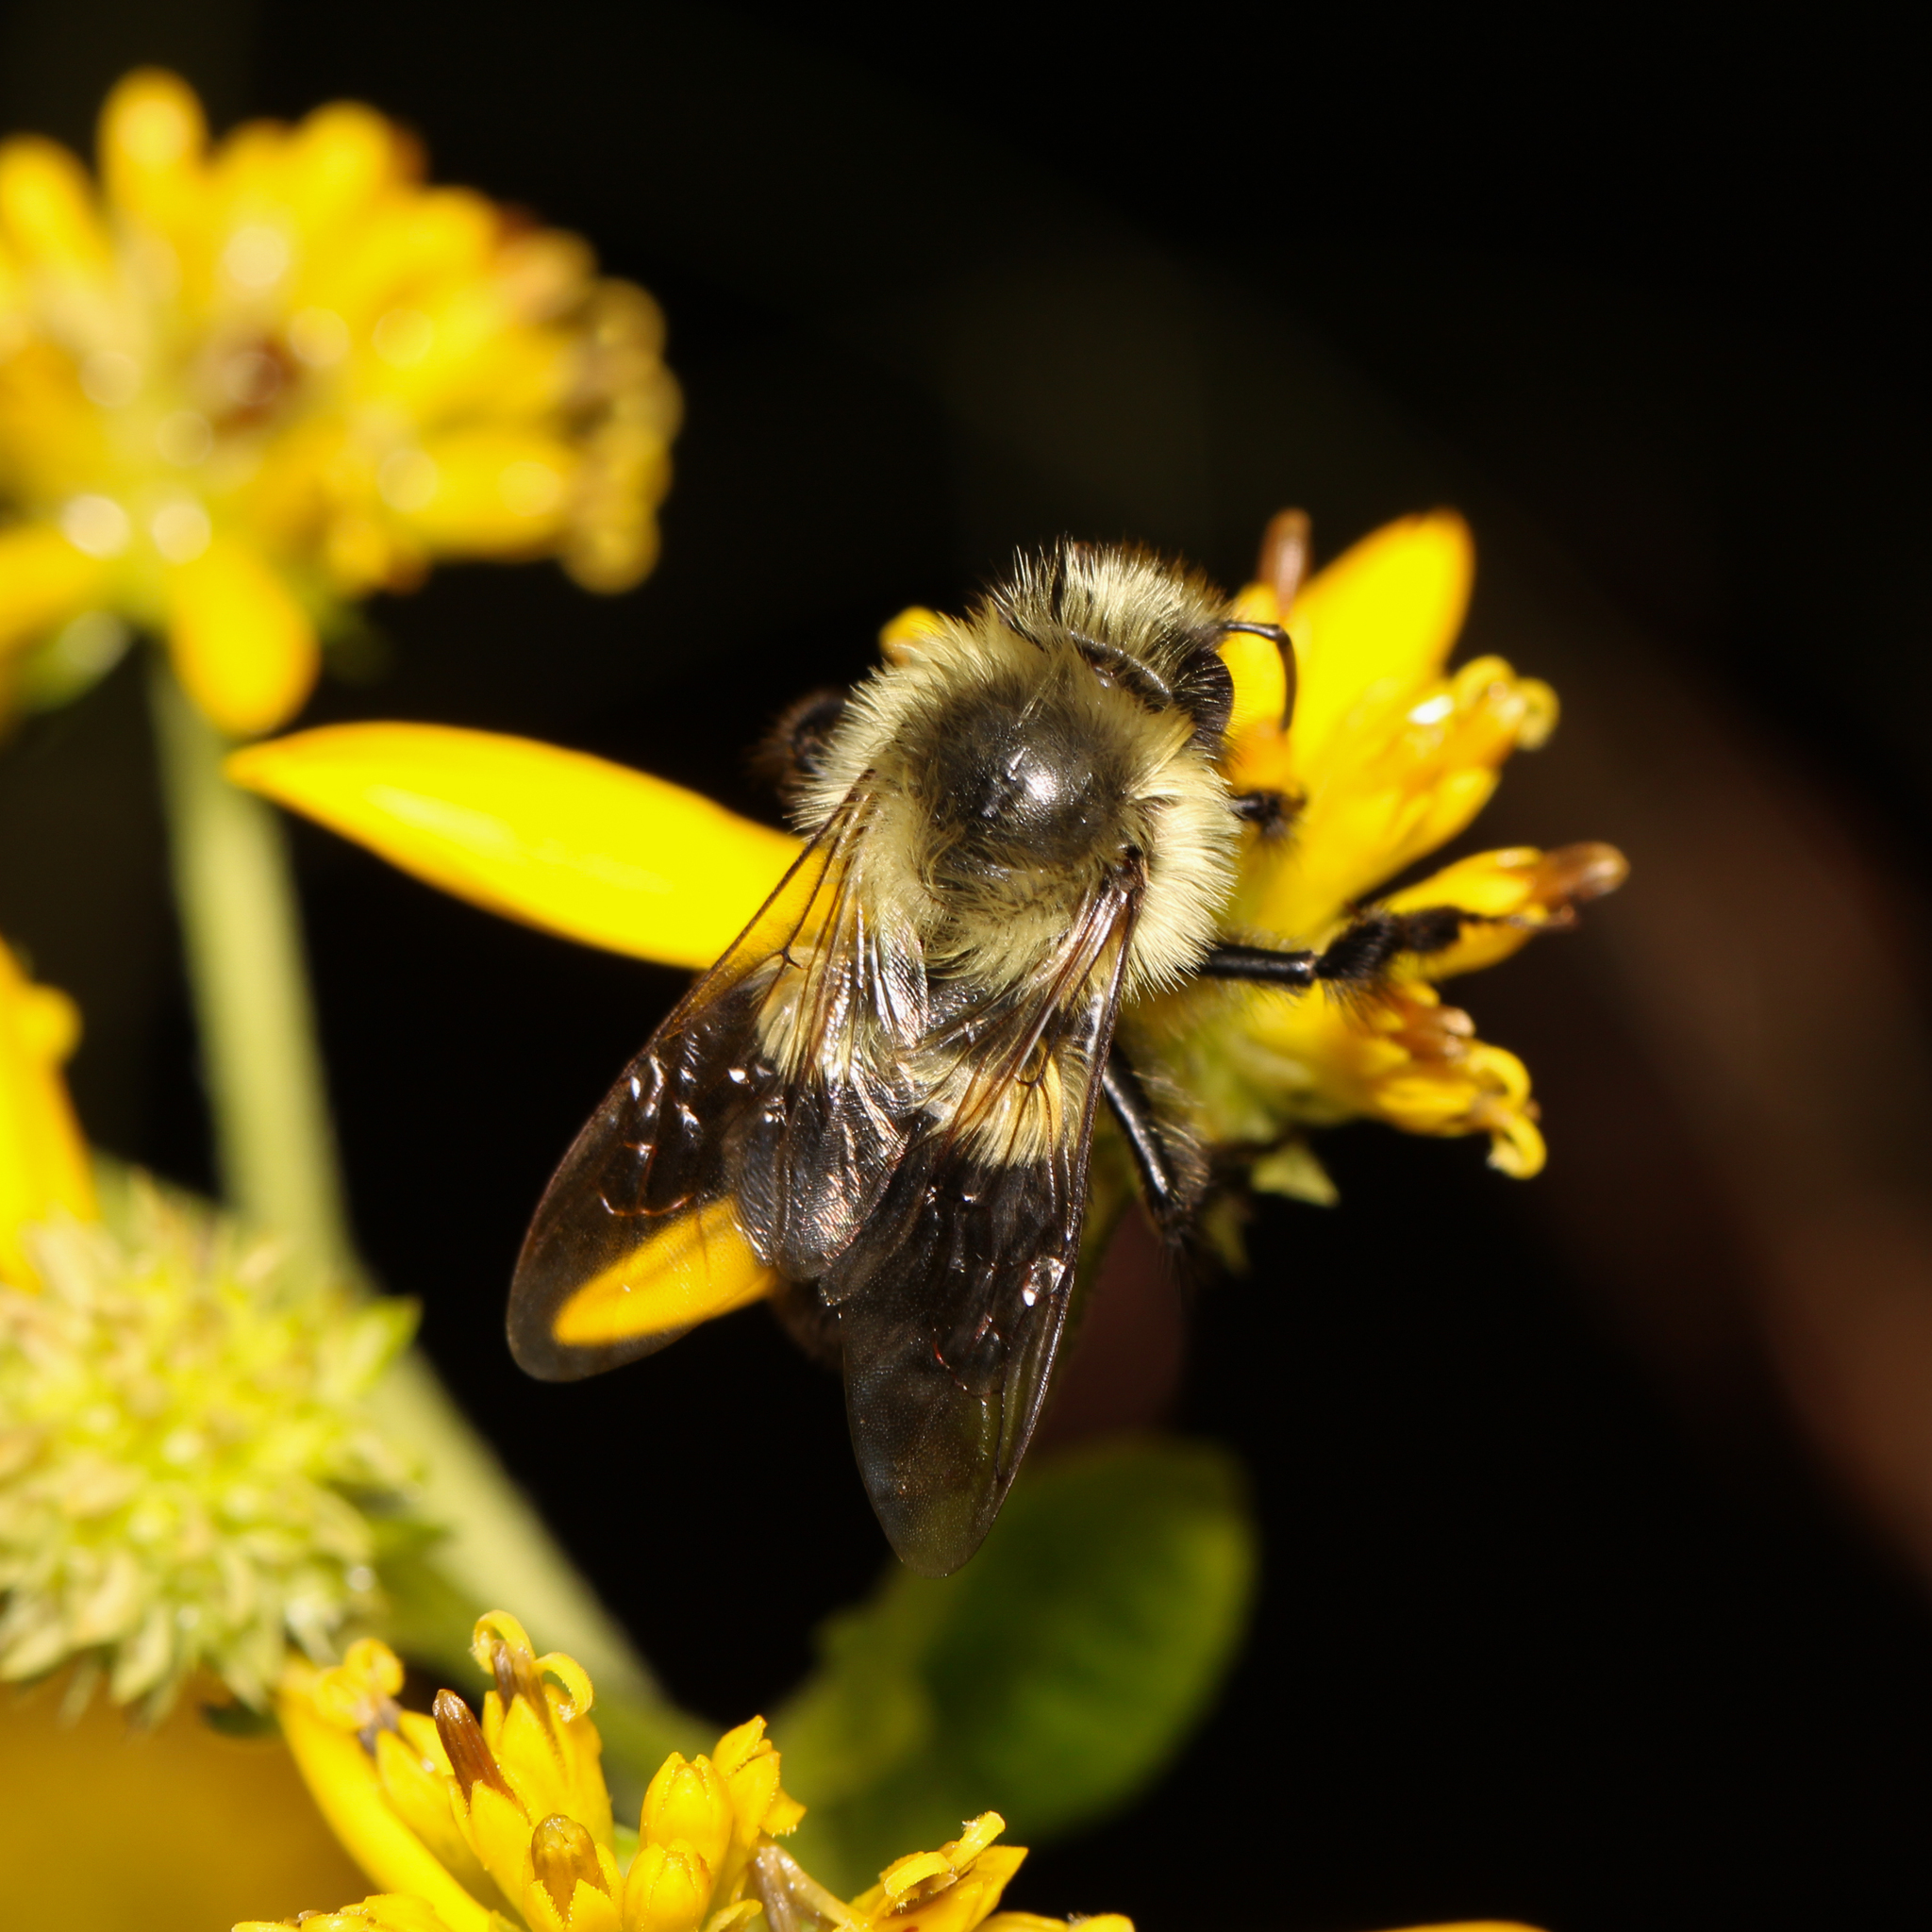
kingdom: Animalia
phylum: Arthropoda
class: Insecta
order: Hymenoptera
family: Apidae
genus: Bombus
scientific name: Bombus impatiens
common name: Common eastern bumble bee
